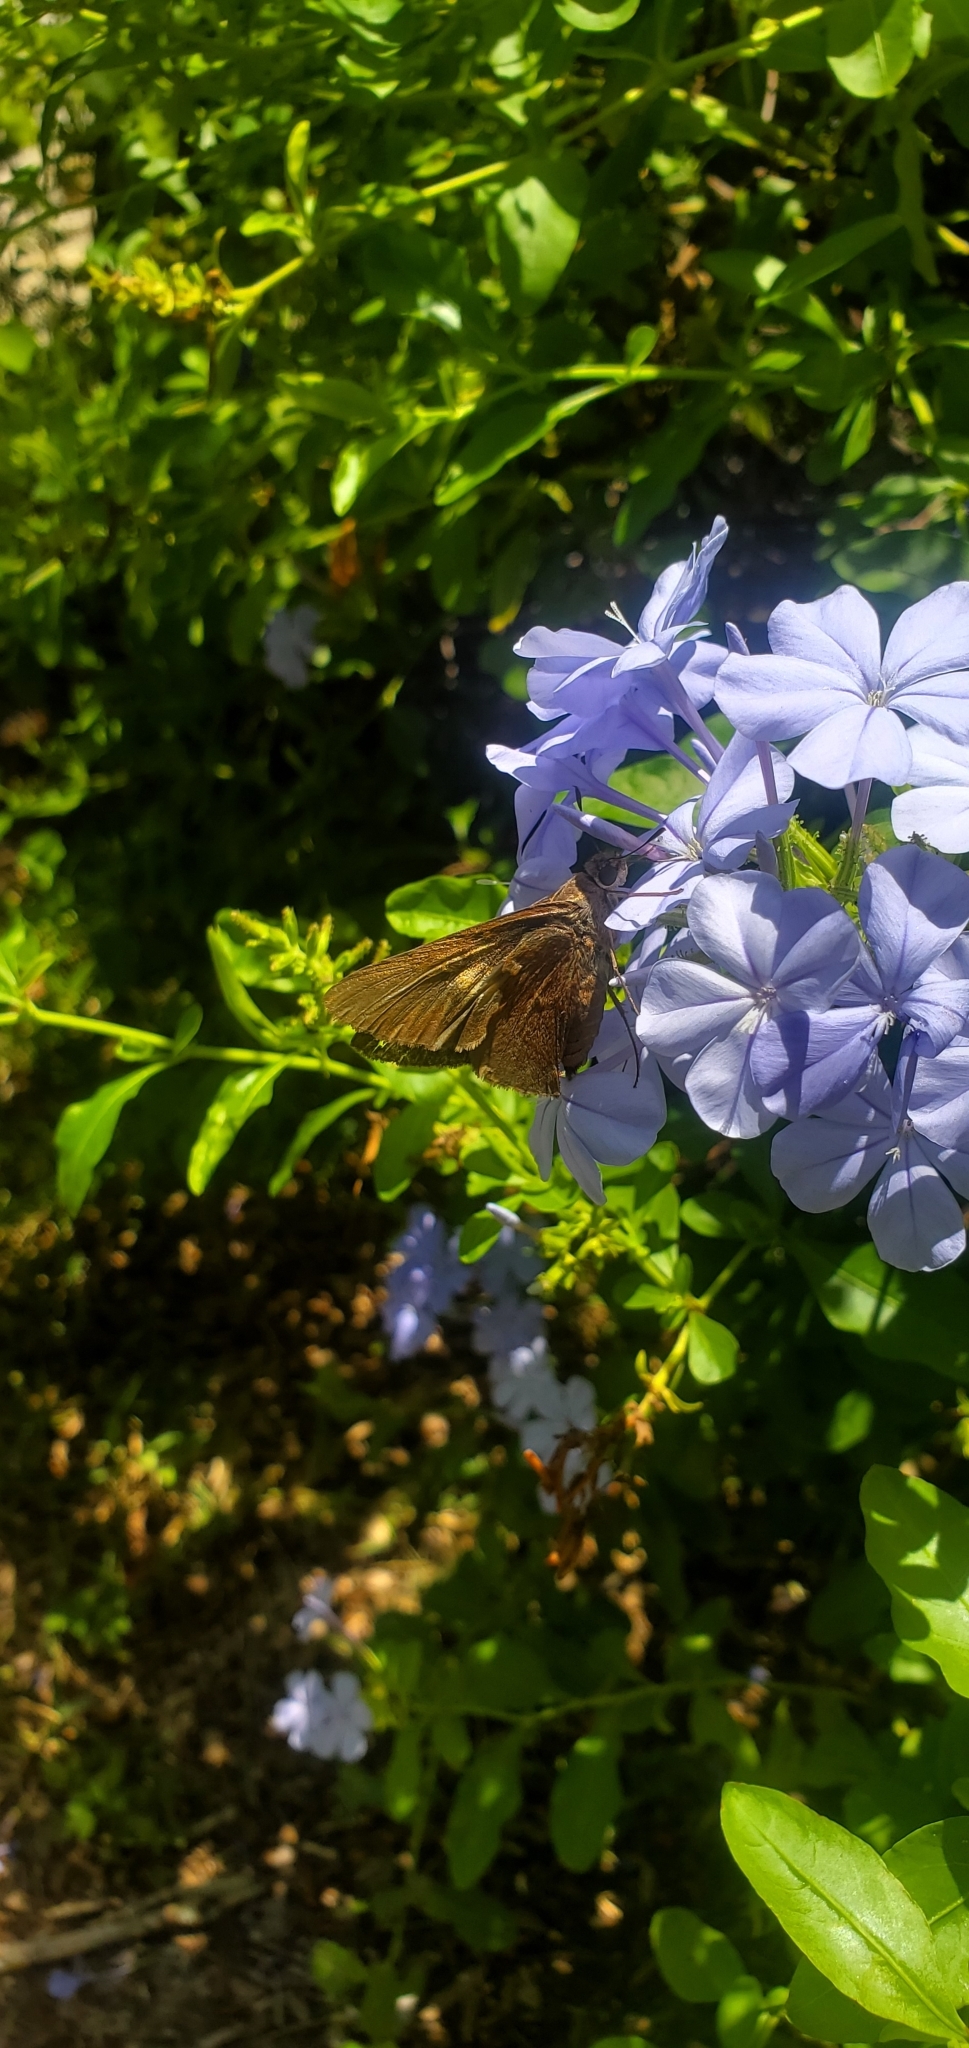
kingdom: Animalia
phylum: Arthropoda
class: Insecta
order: Lepidoptera
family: Hesperiidae
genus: Asbolis
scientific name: Asbolis capucinus
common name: Monk skipper
